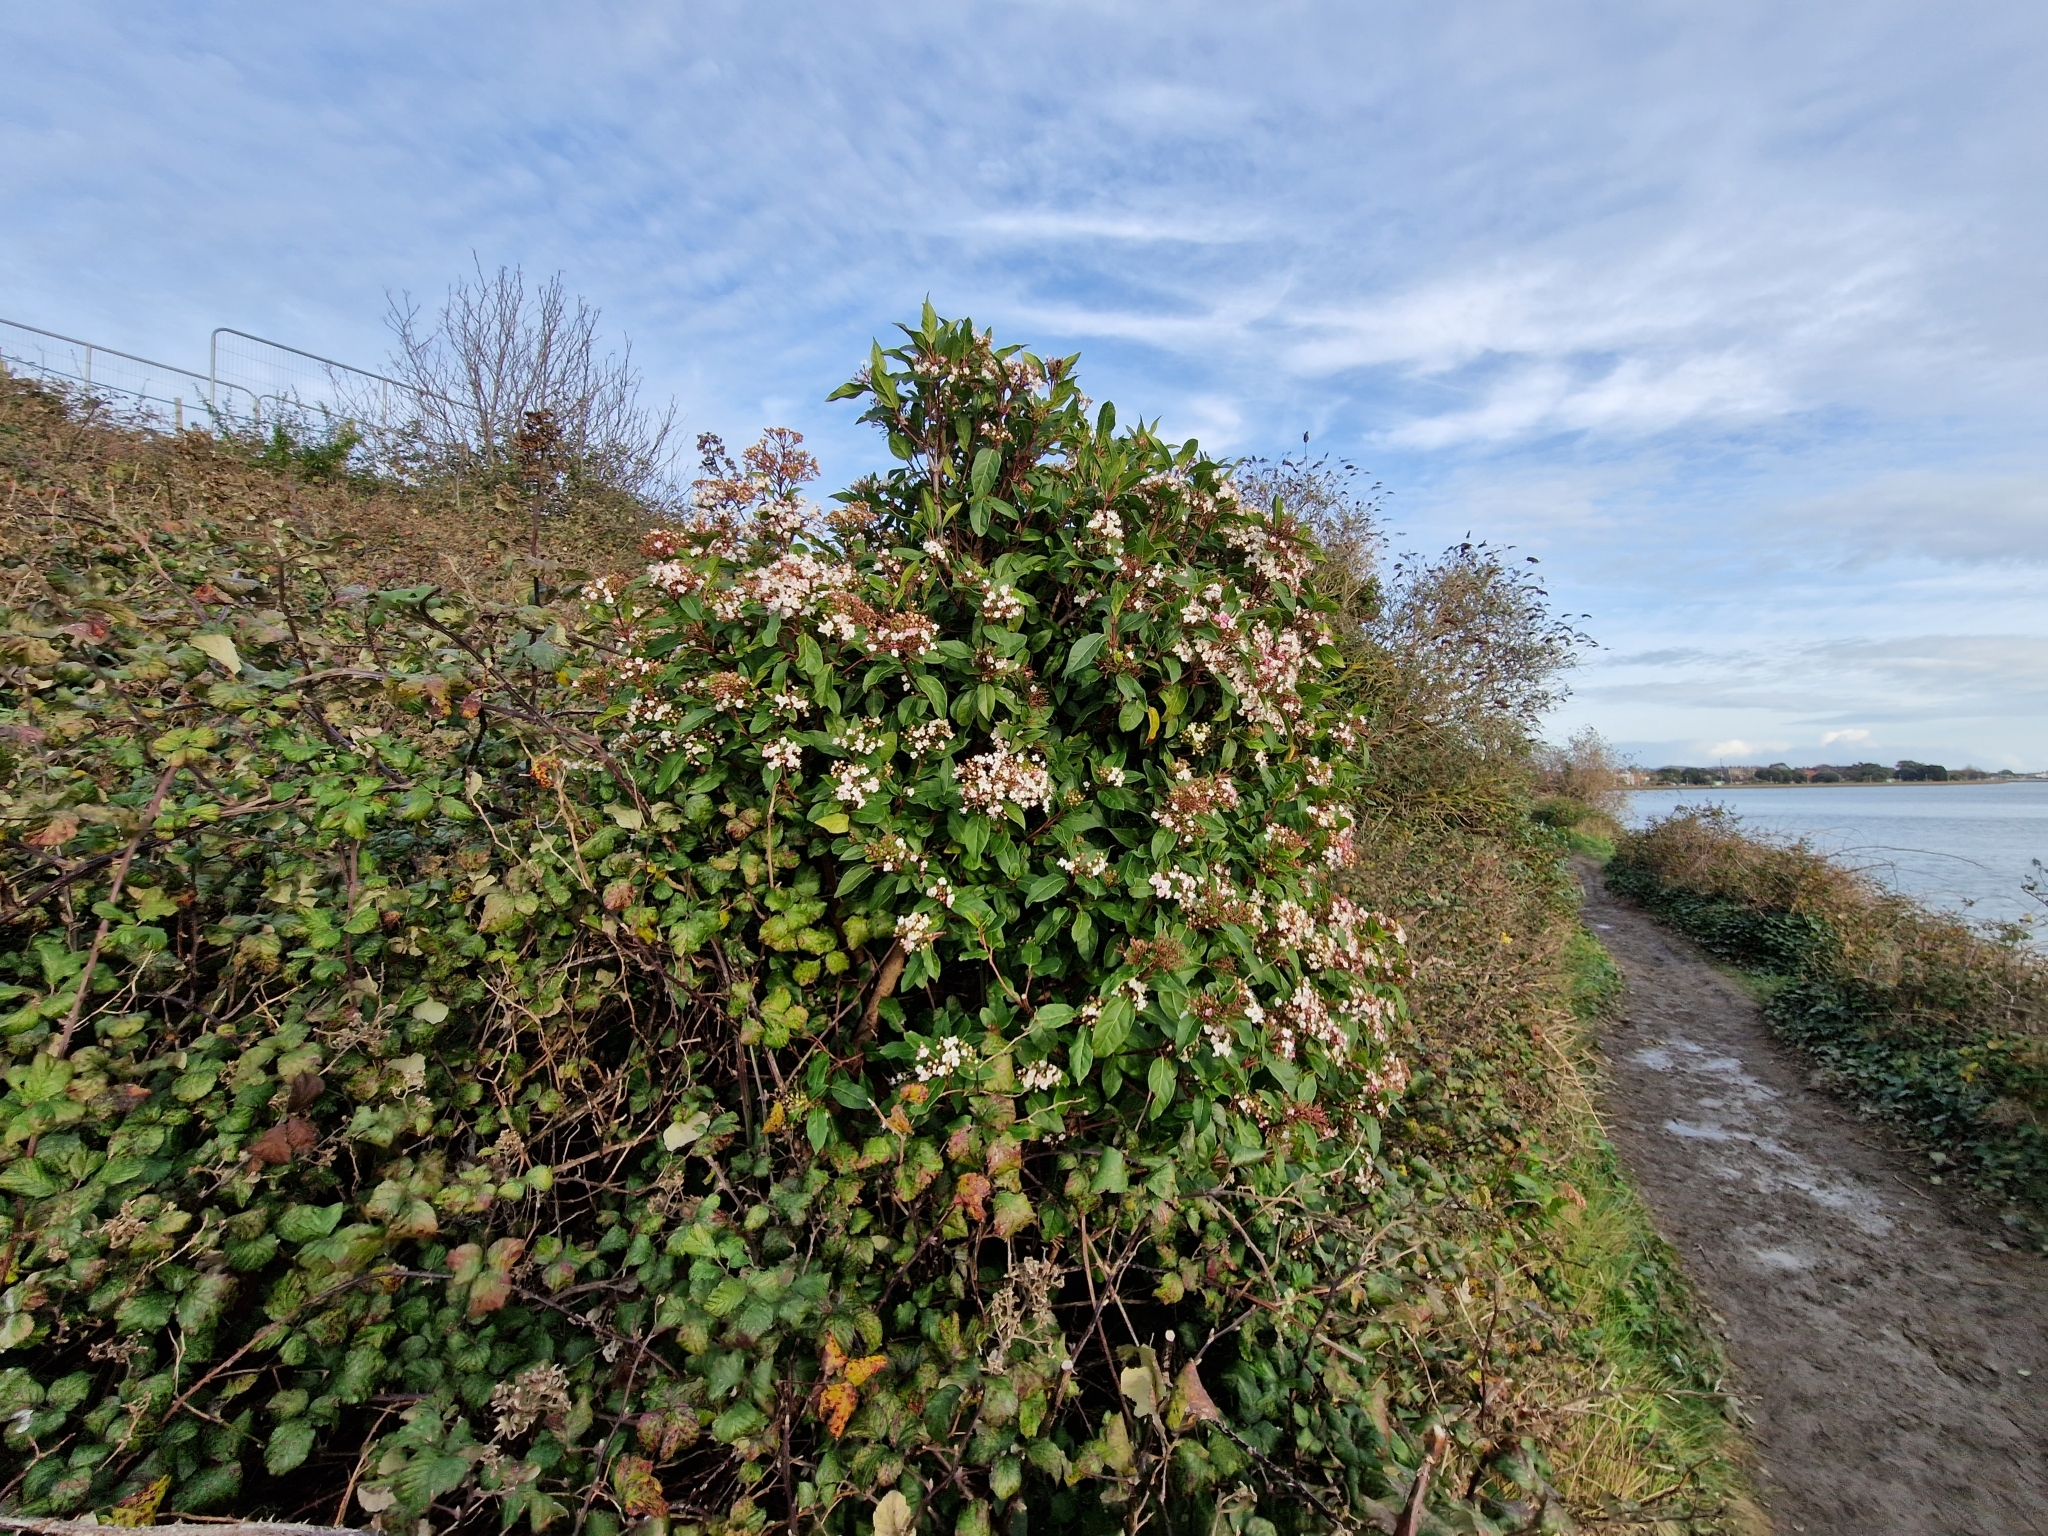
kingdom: Plantae
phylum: Tracheophyta
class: Magnoliopsida
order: Dipsacales
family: Viburnaceae
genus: Viburnum
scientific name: Viburnum tinus
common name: Laurustinus
